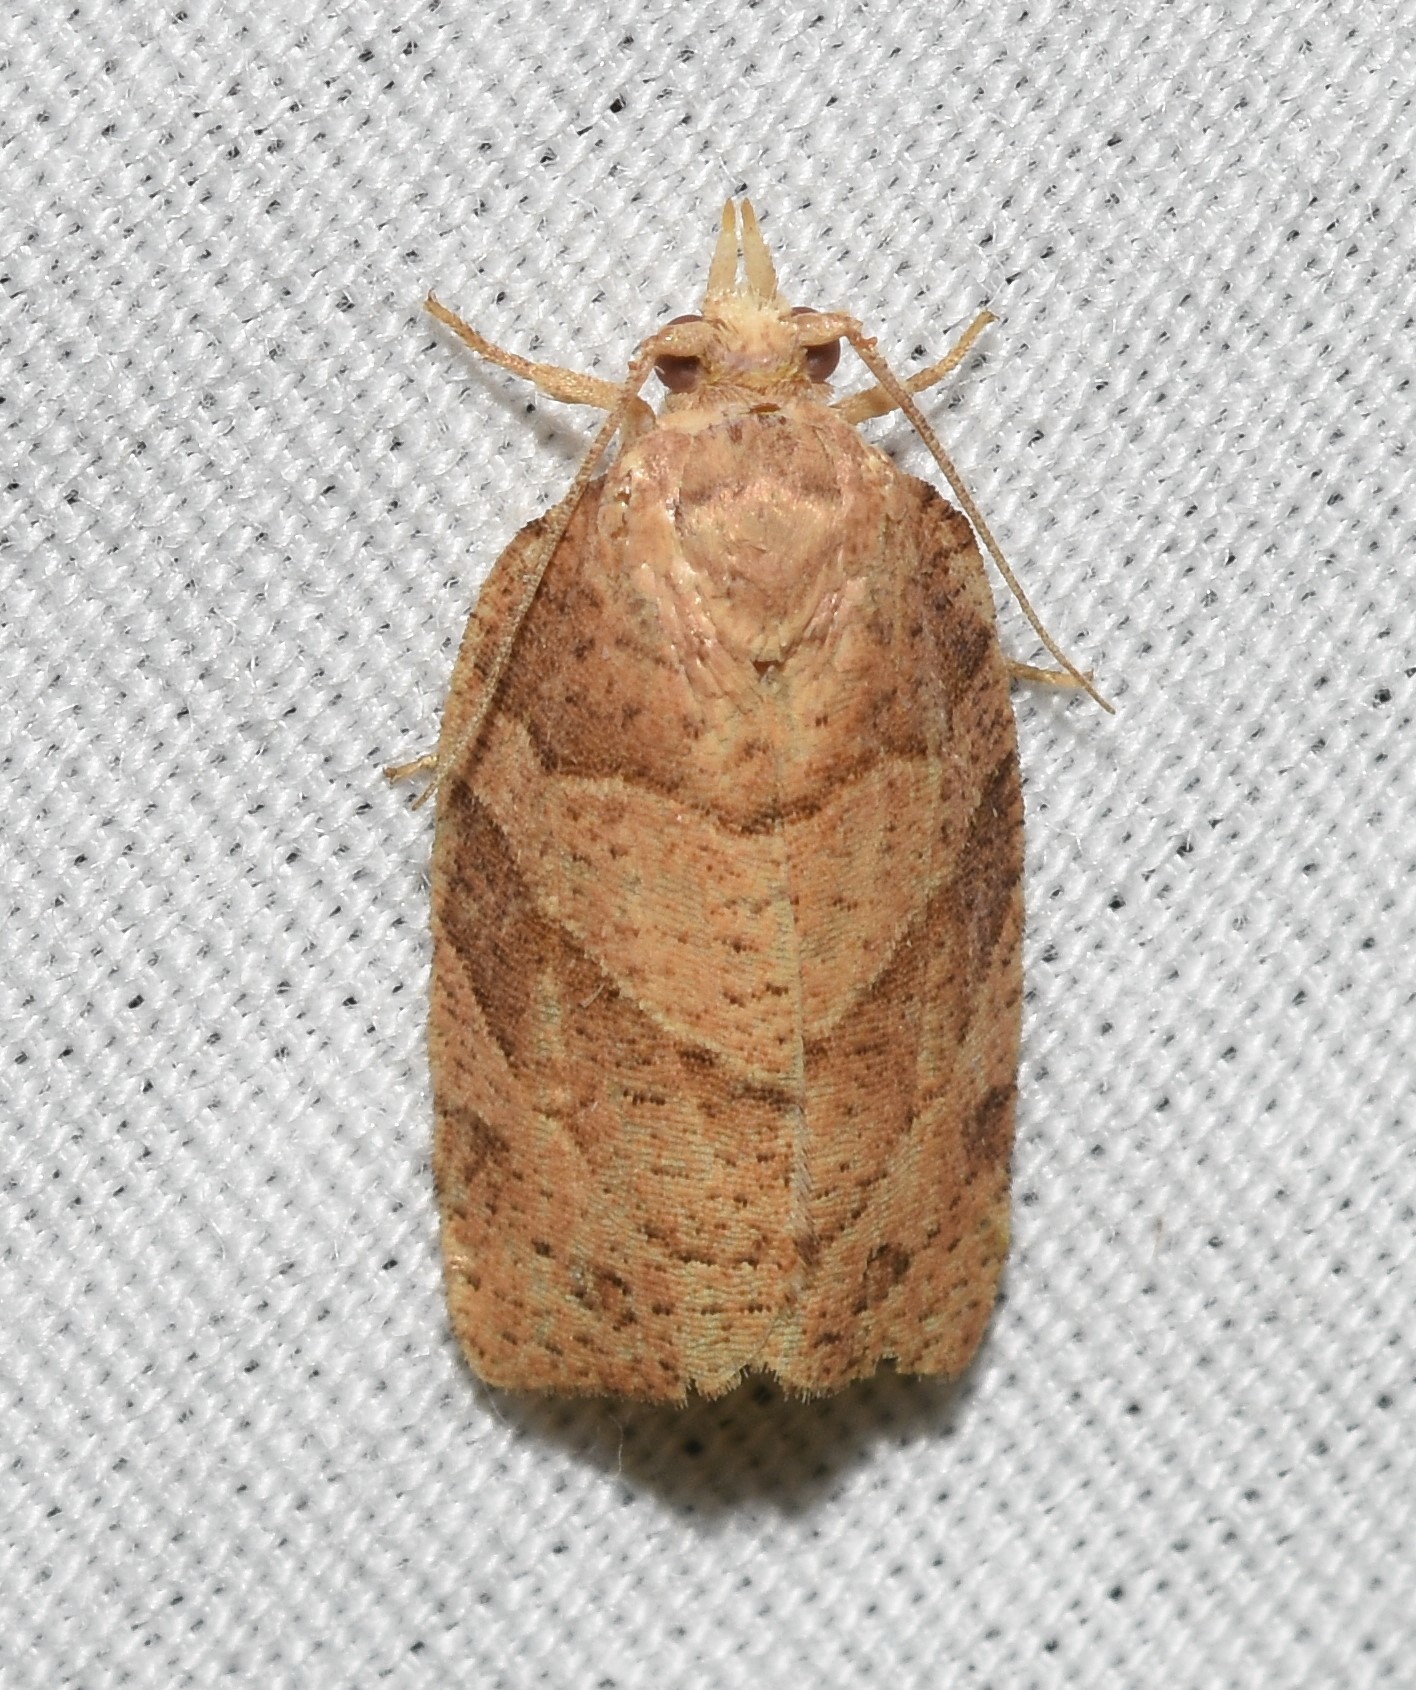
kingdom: Animalia
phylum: Arthropoda
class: Insecta
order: Lepidoptera
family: Tortricidae
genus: Pandemis
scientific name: Pandemis lamprosana
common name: Woodgrain leafroller moth
